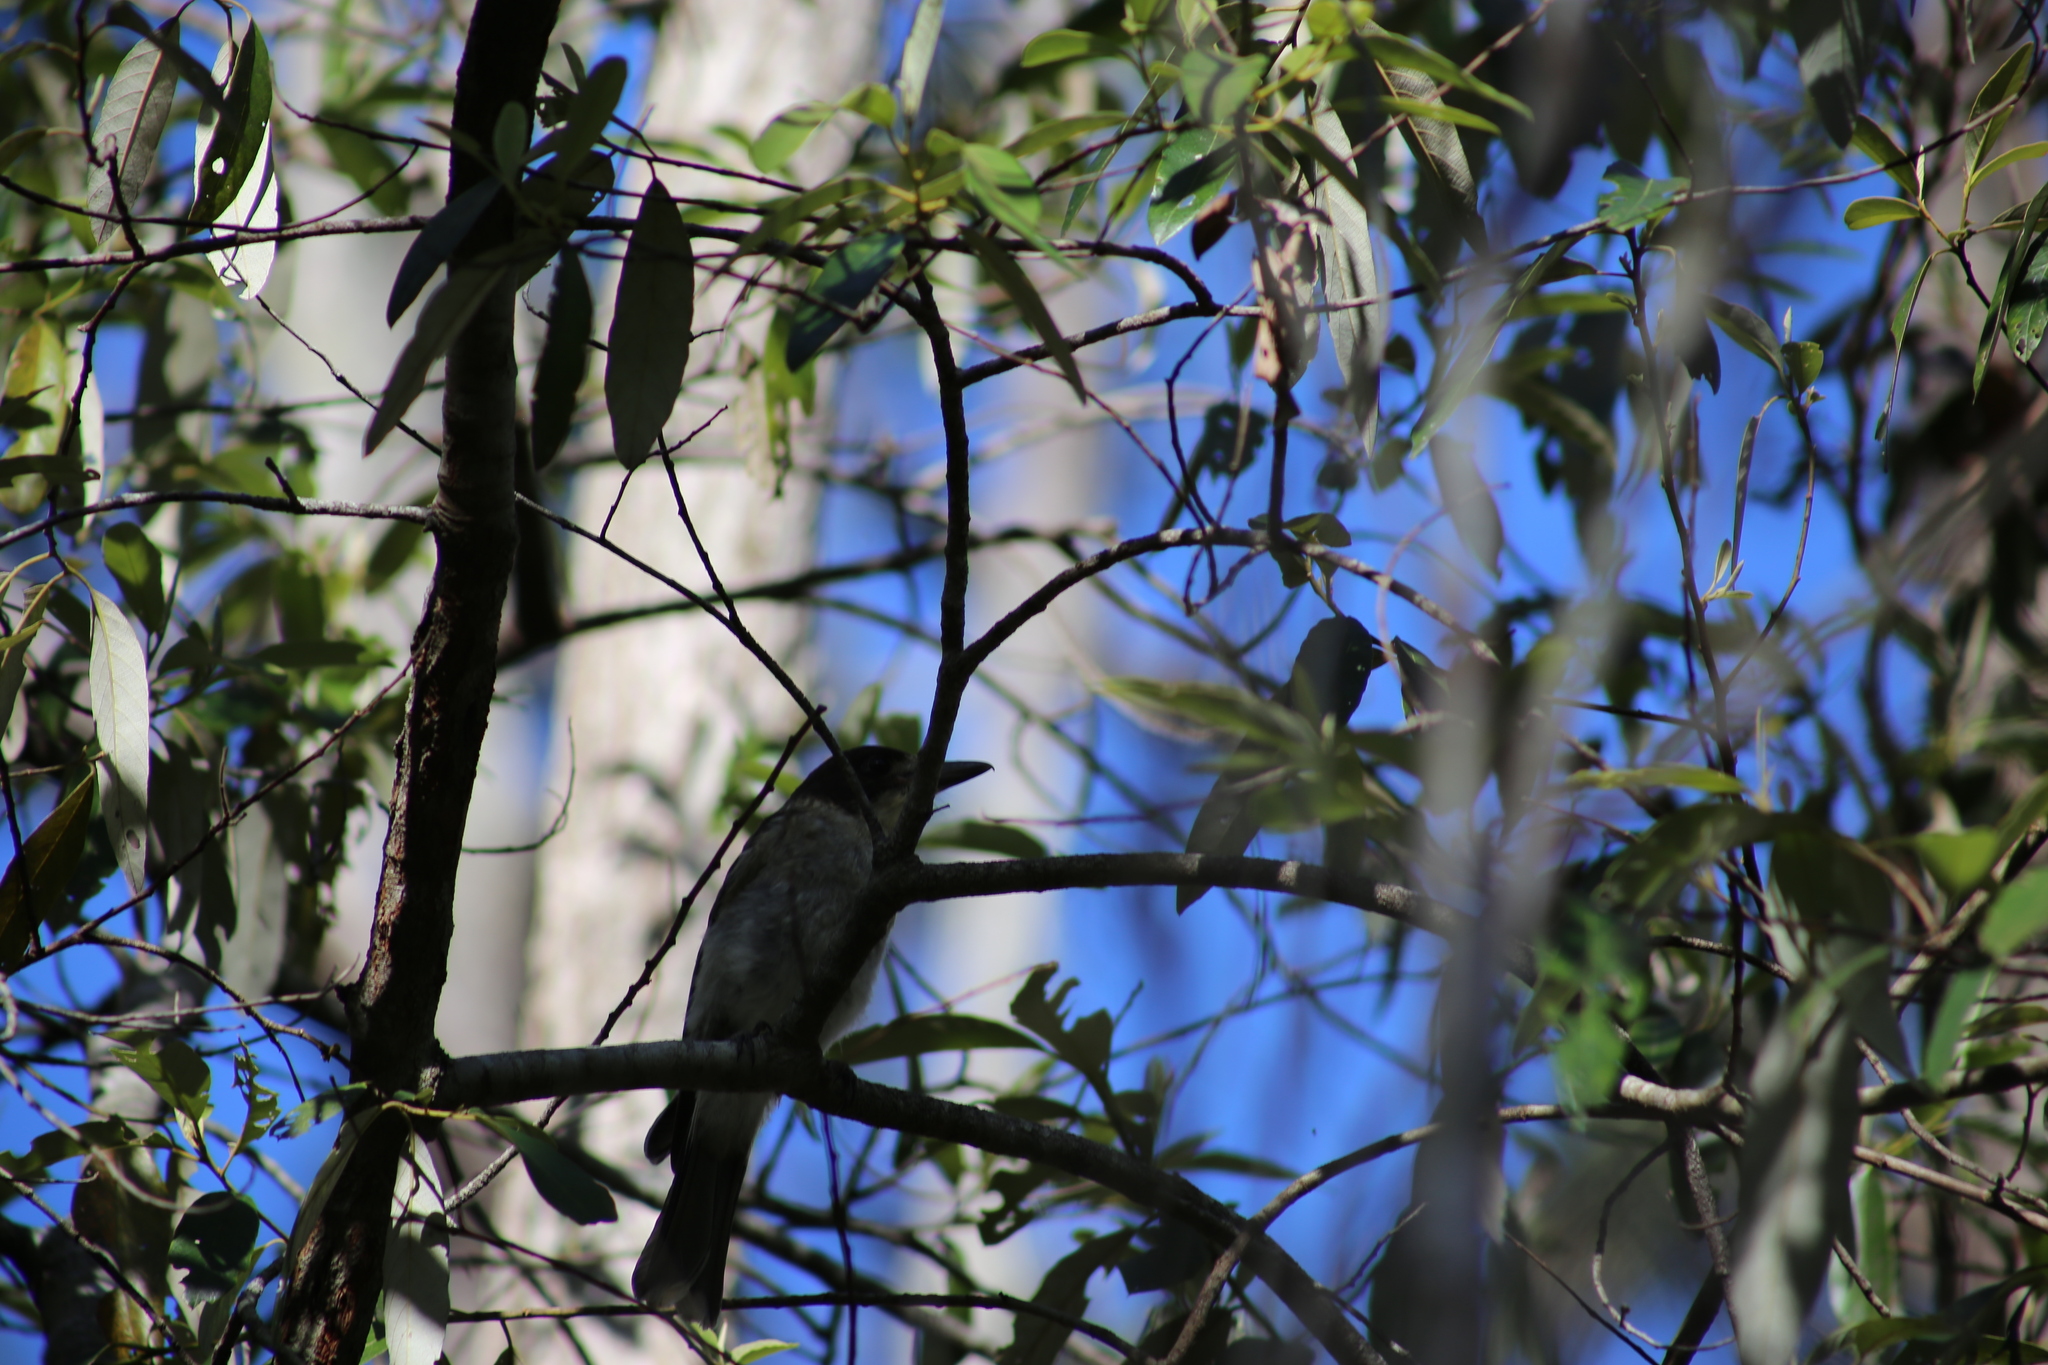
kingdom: Animalia
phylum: Chordata
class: Aves
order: Passeriformes
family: Cracticidae
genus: Cracticus
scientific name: Cracticus torquatus
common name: Grey butcherbird
